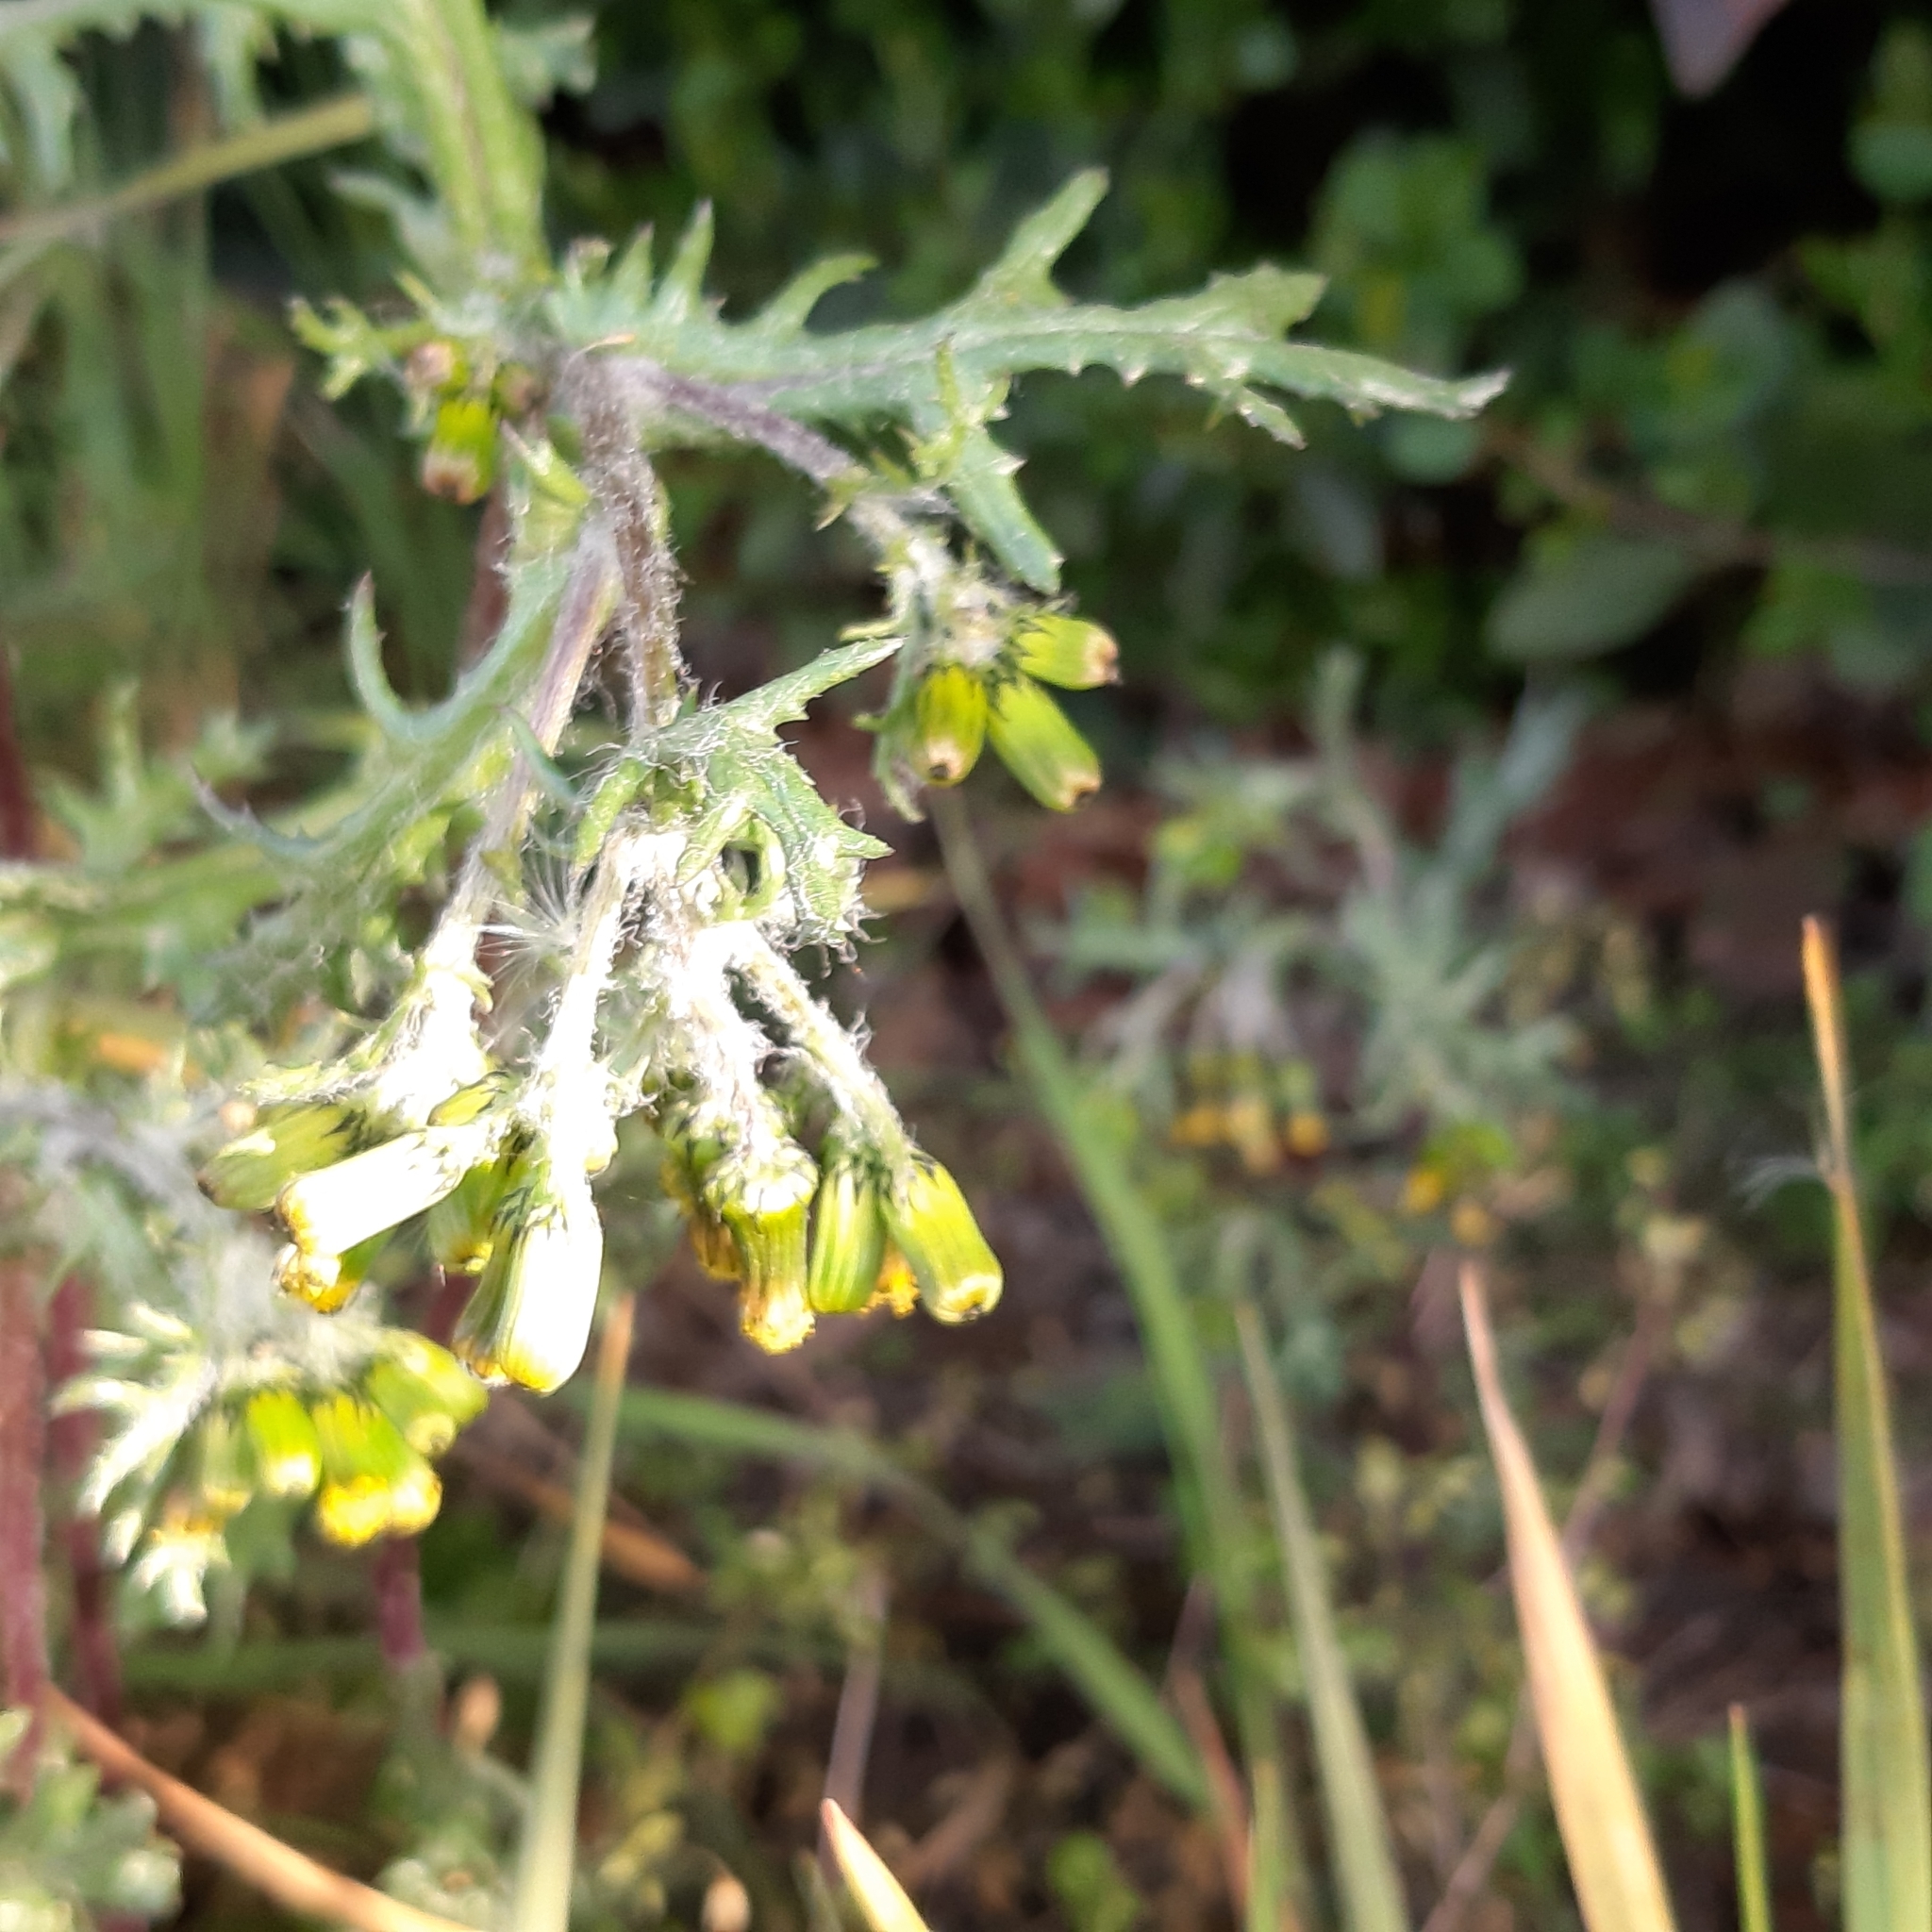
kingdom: Plantae
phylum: Tracheophyta
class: Magnoliopsida
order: Asterales
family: Asteraceae
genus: Senecio
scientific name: Senecio vulgaris
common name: Old-man-in-the-spring
